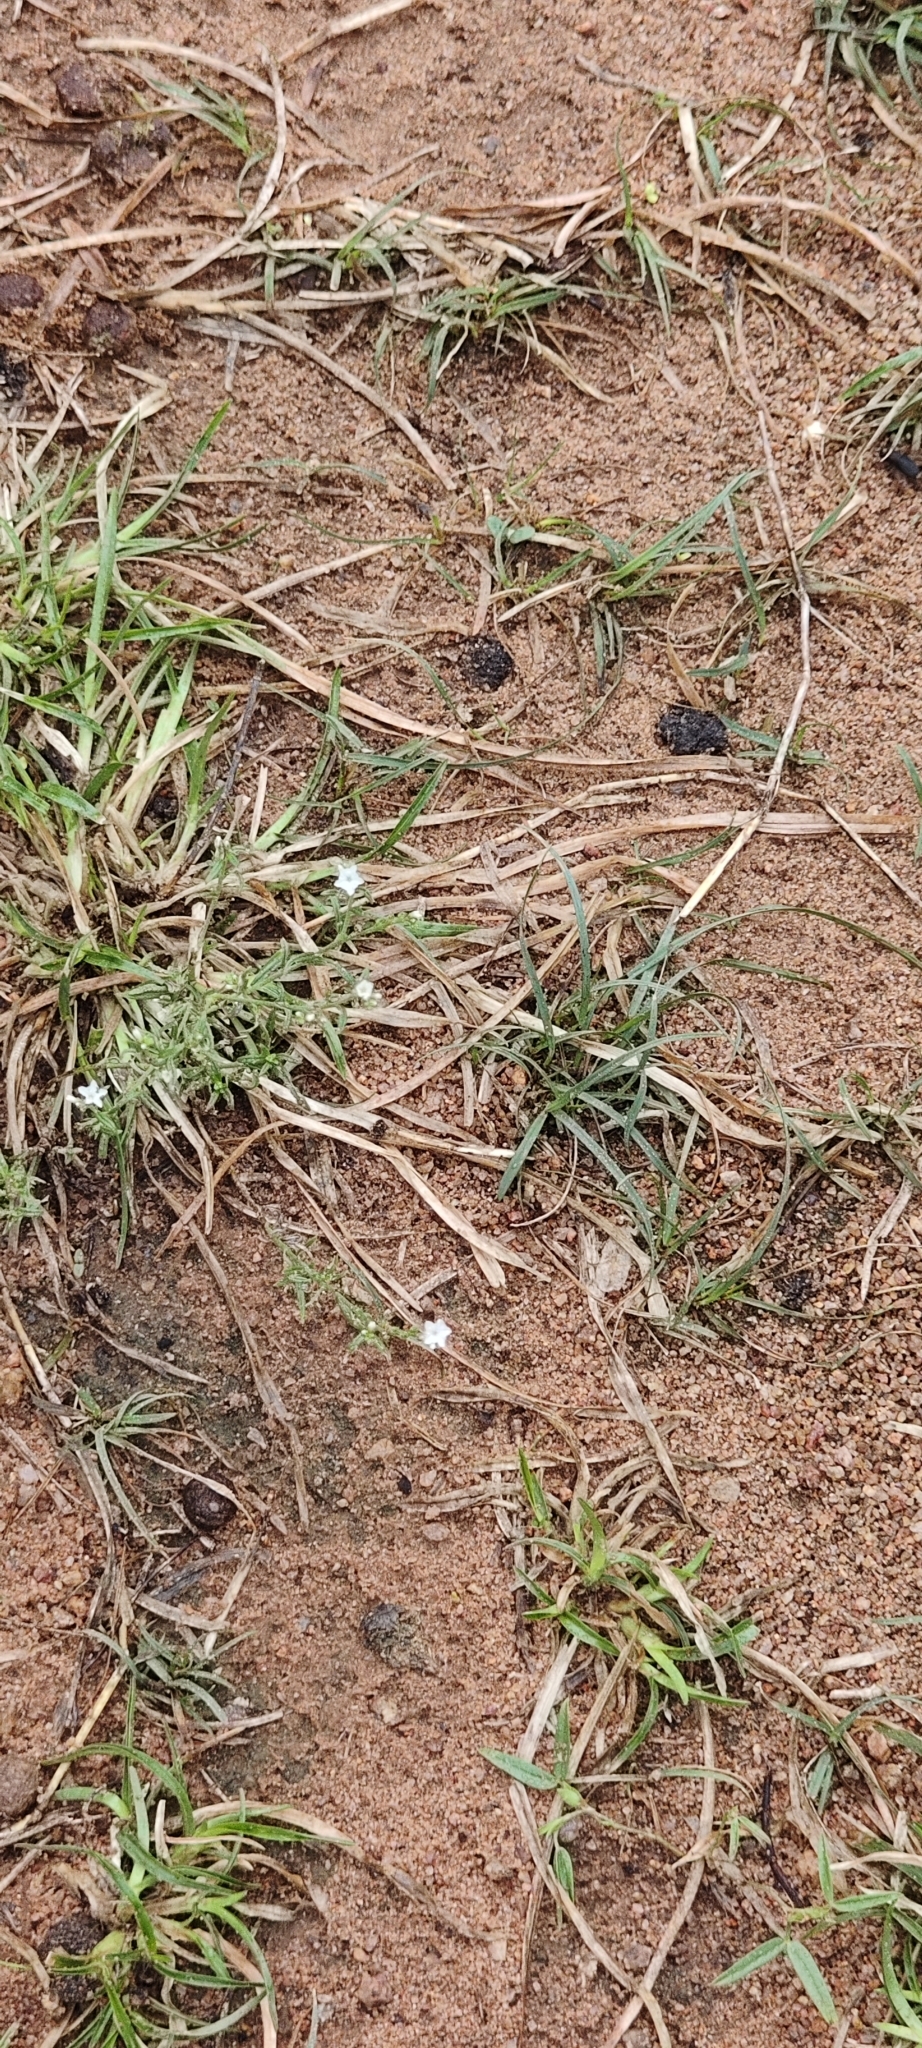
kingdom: Plantae
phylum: Tracheophyta
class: Magnoliopsida
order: Boraginales
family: Heliotropiaceae
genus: Euploca
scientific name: Euploca strigosa
